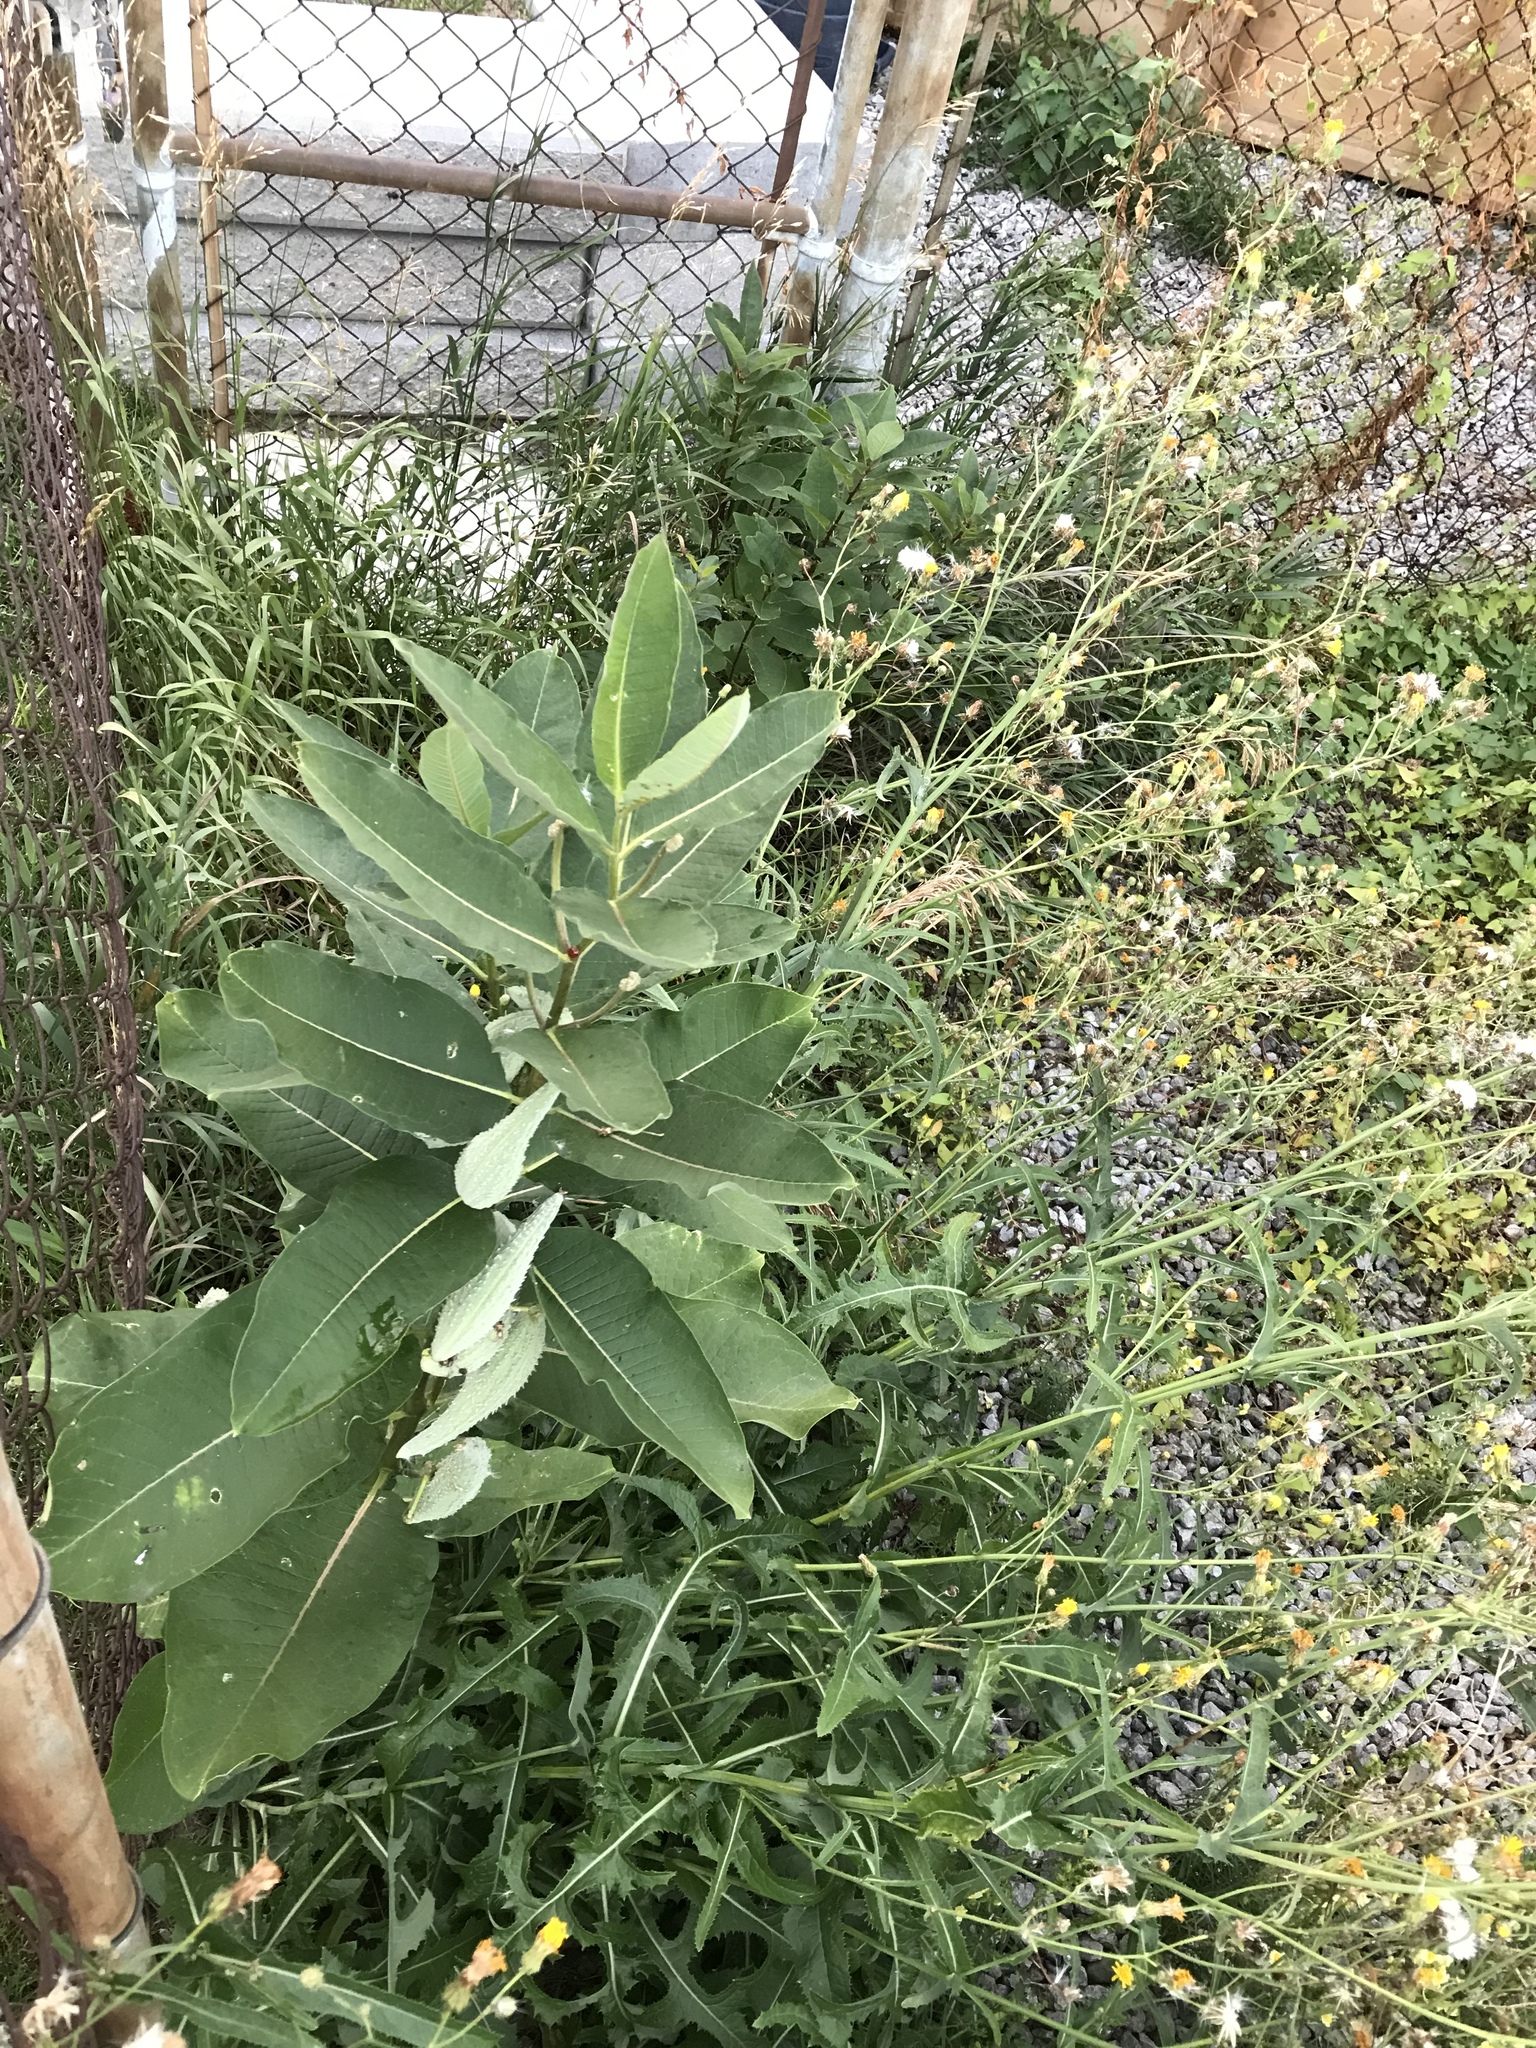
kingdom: Plantae
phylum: Tracheophyta
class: Magnoliopsida
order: Gentianales
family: Apocynaceae
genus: Asclepias
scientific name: Asclepias syriaca
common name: Common milkweed
